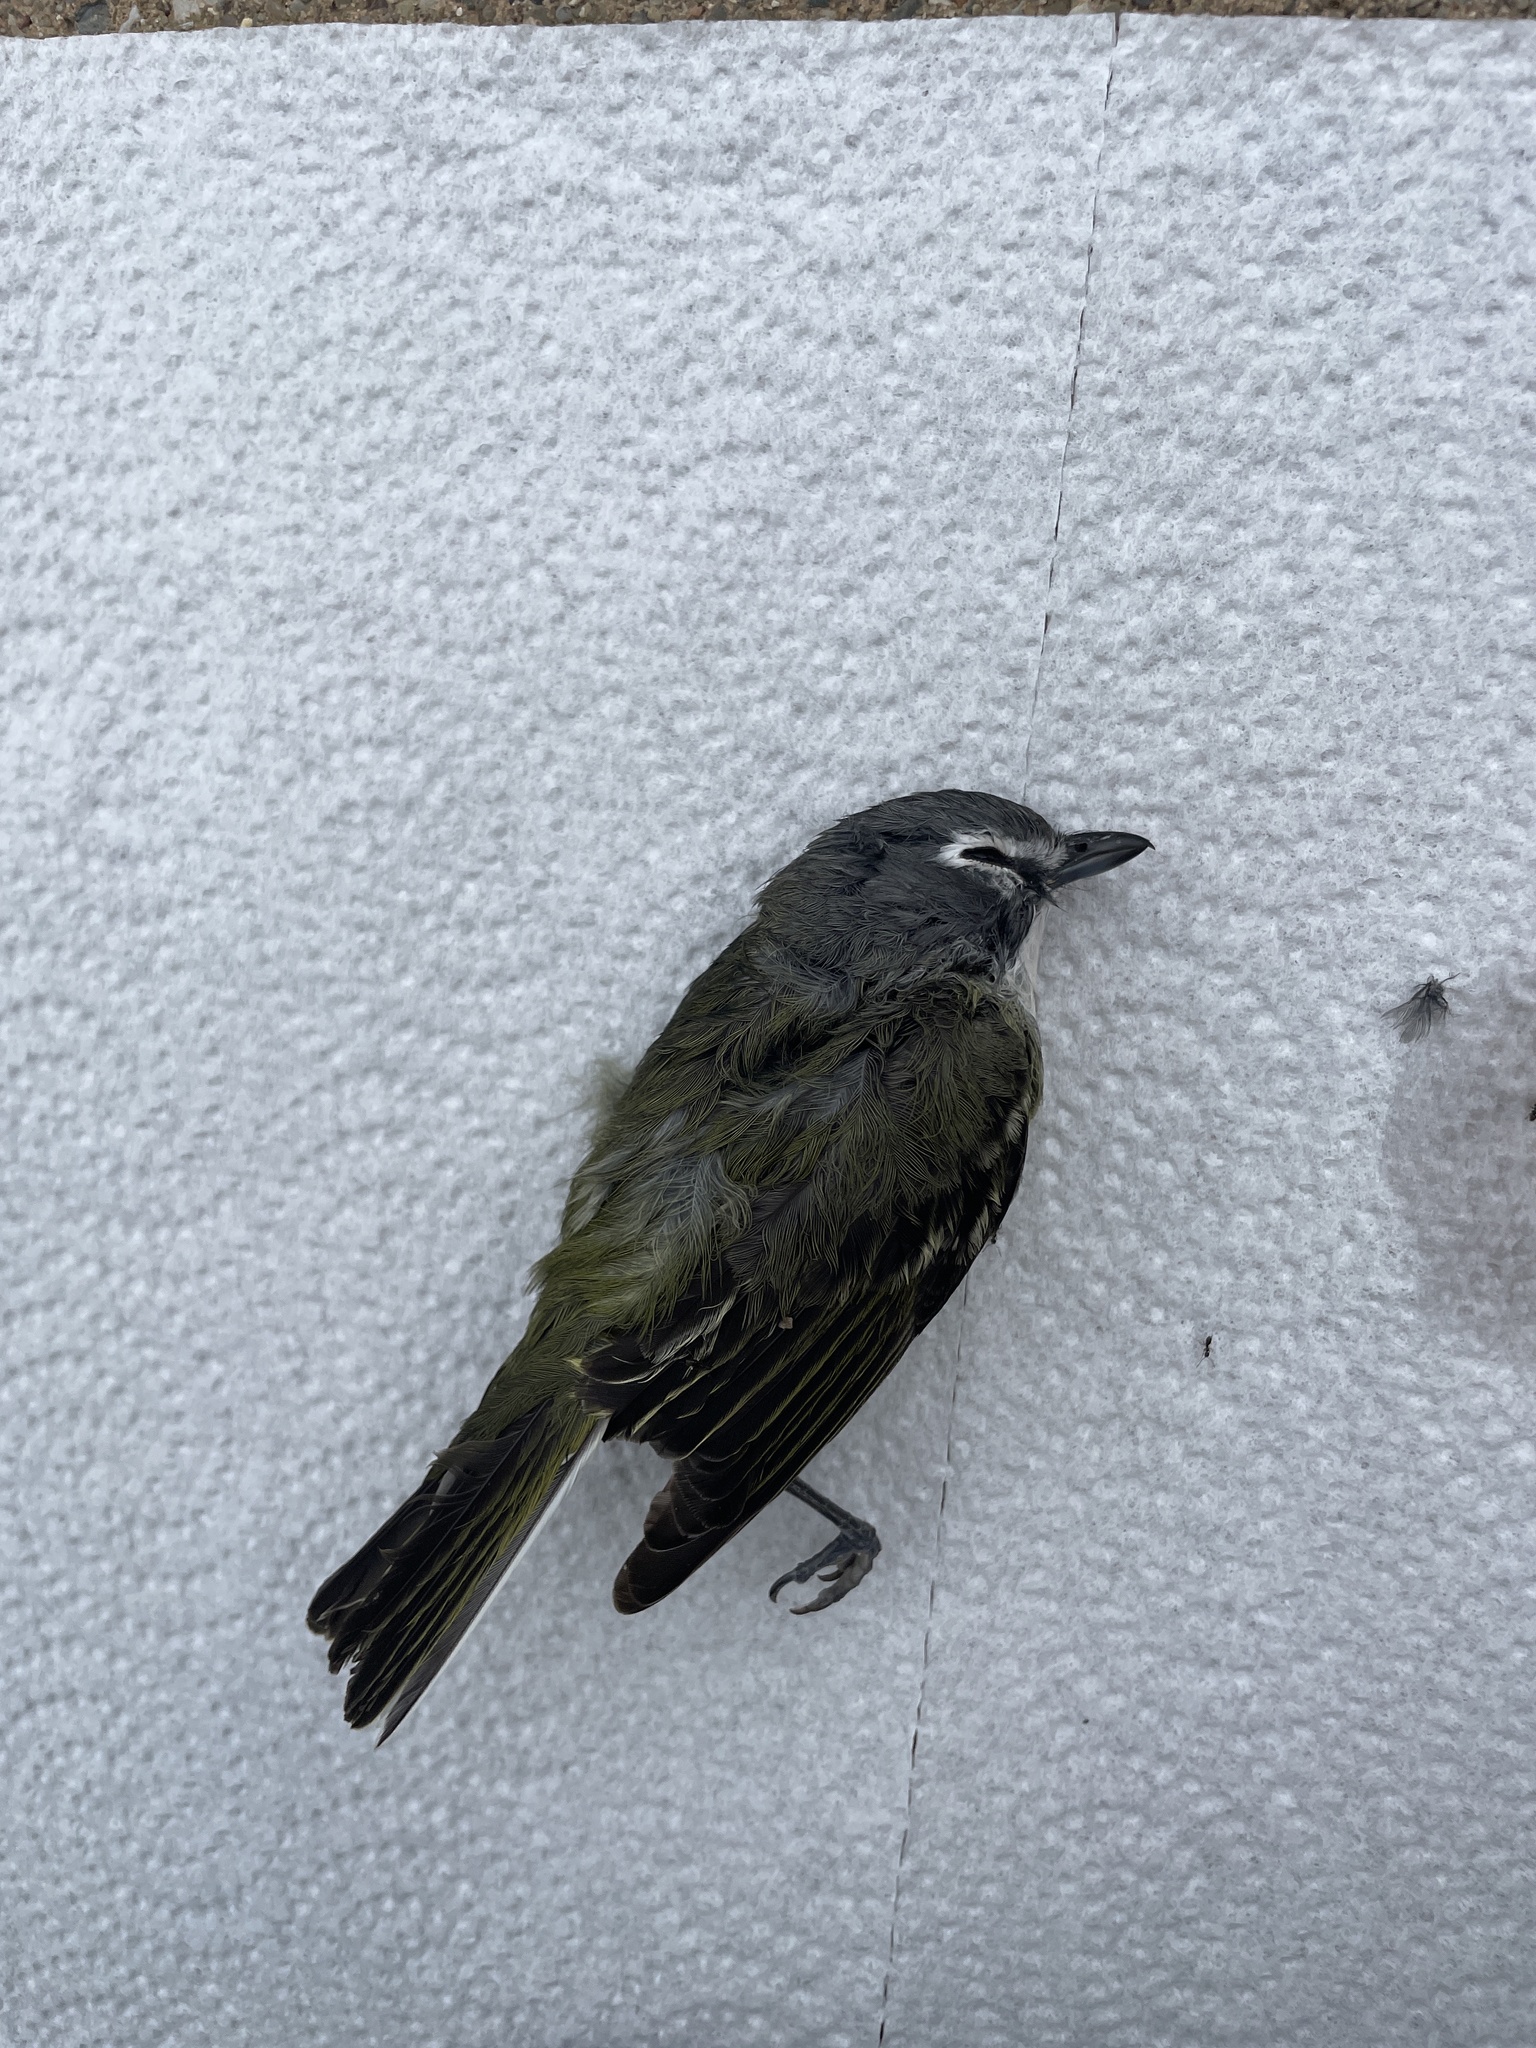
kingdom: Animalia
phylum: Chordata
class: Aves
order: Passeriformes
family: Vireonidae
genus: Vireo
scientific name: Vireo solitarius
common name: Blue-headed vireo
